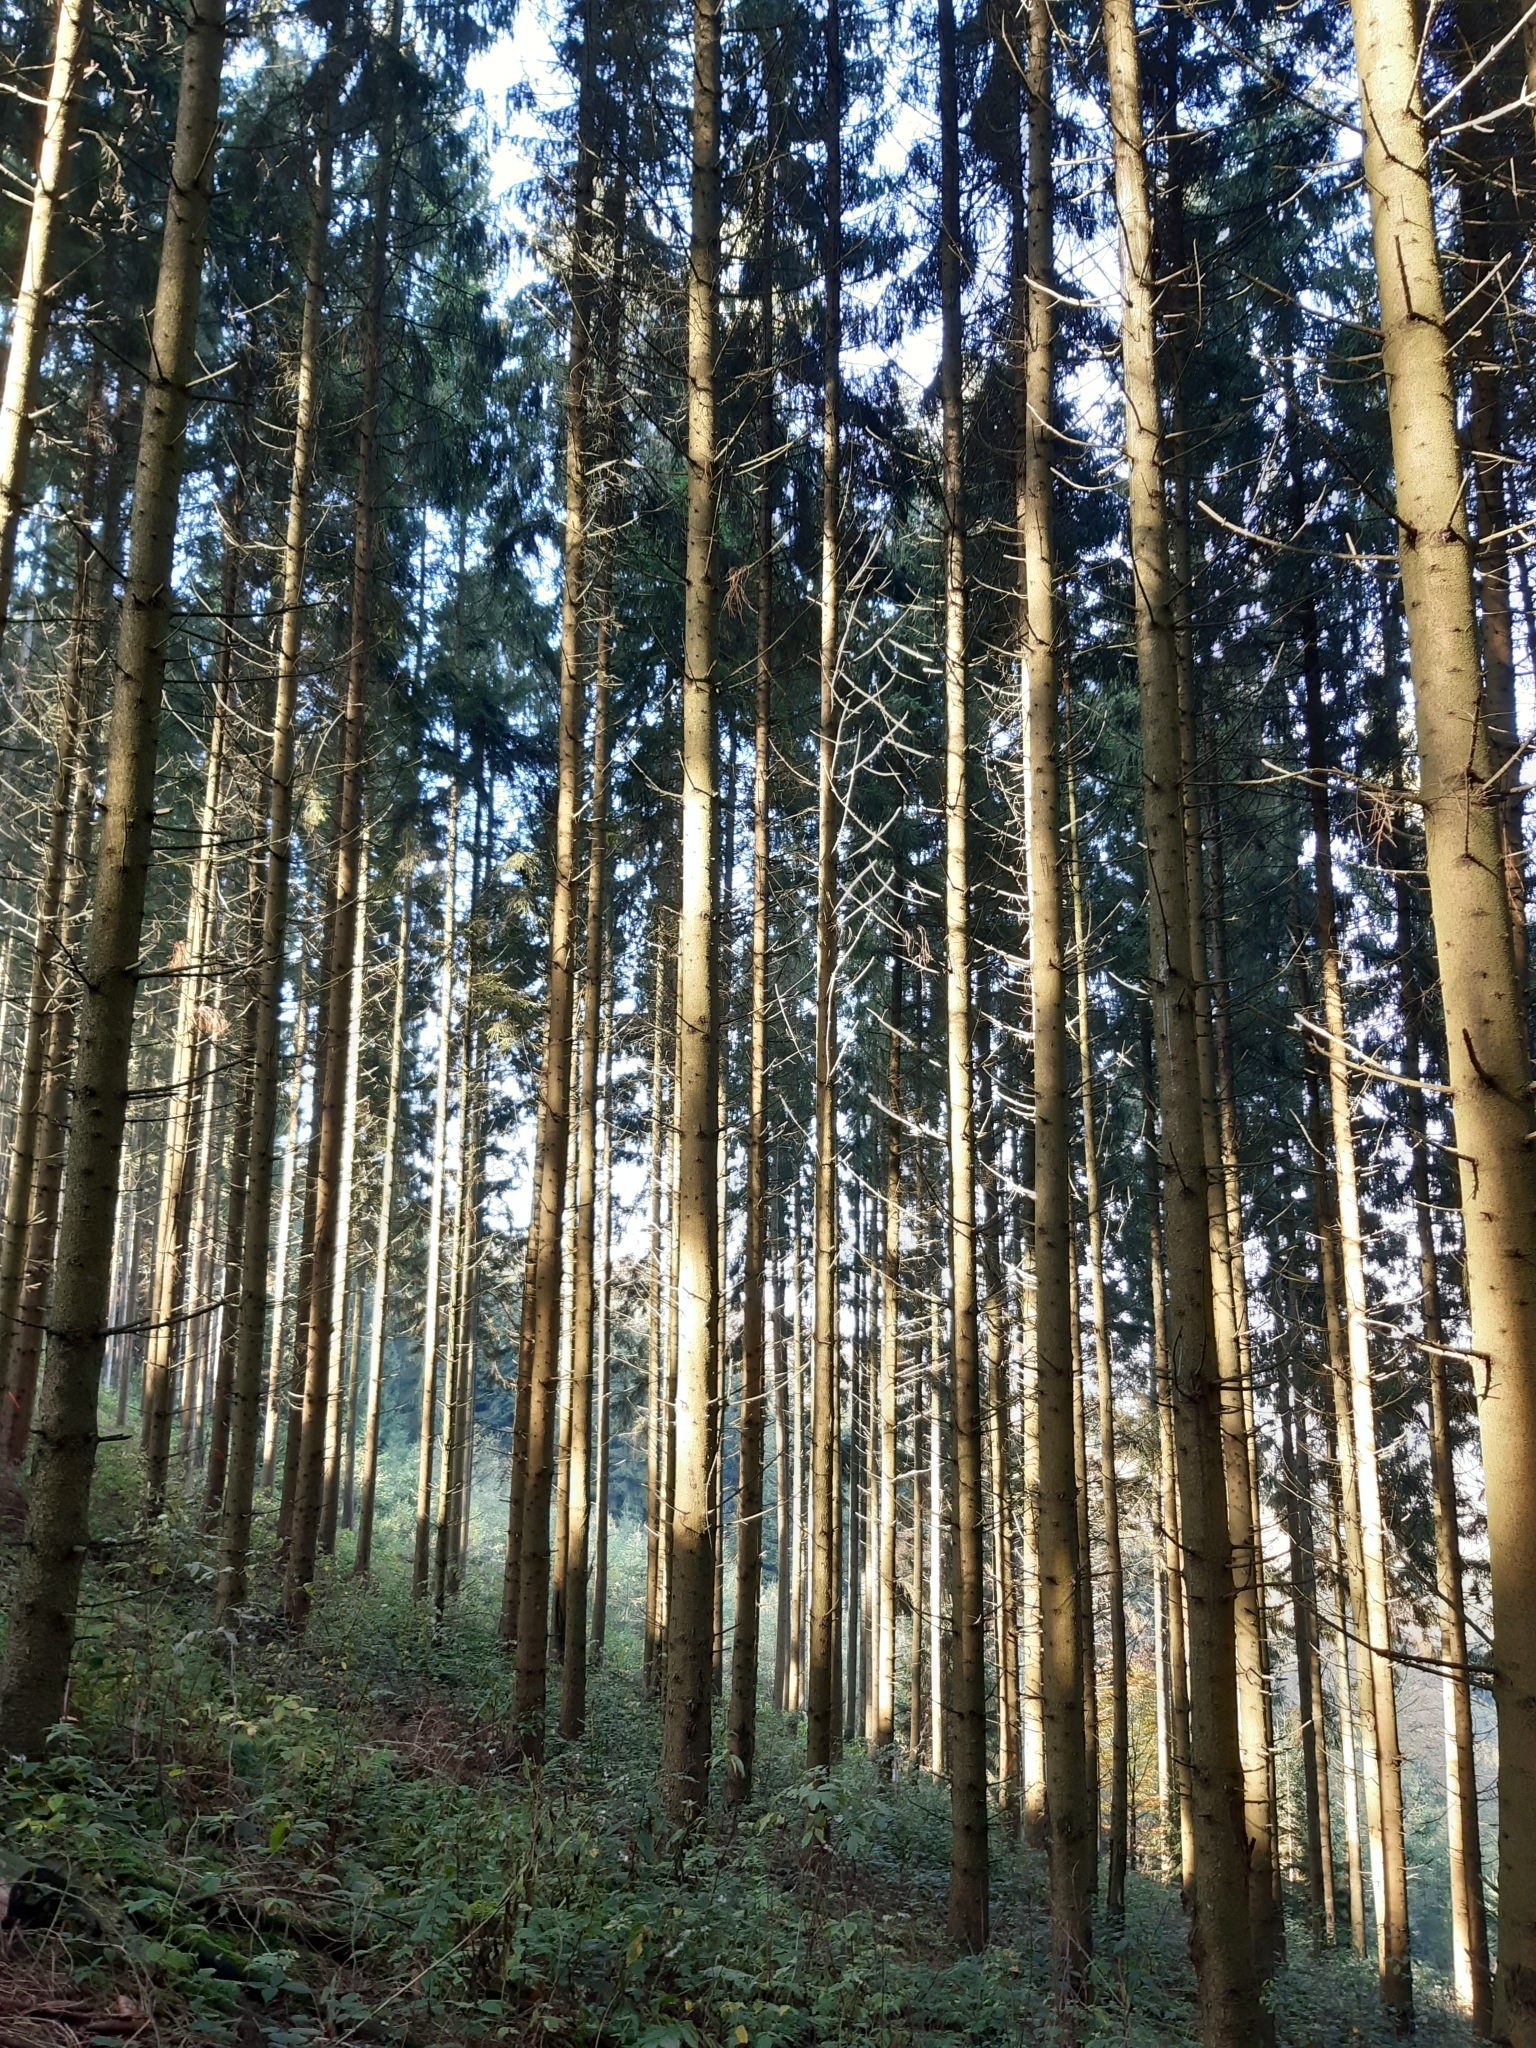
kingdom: Plantae
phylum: Tracheophyta
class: Pinopsida
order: Pinales
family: Pinaceae
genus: Picea
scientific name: Picea abies
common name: Norway spruce
